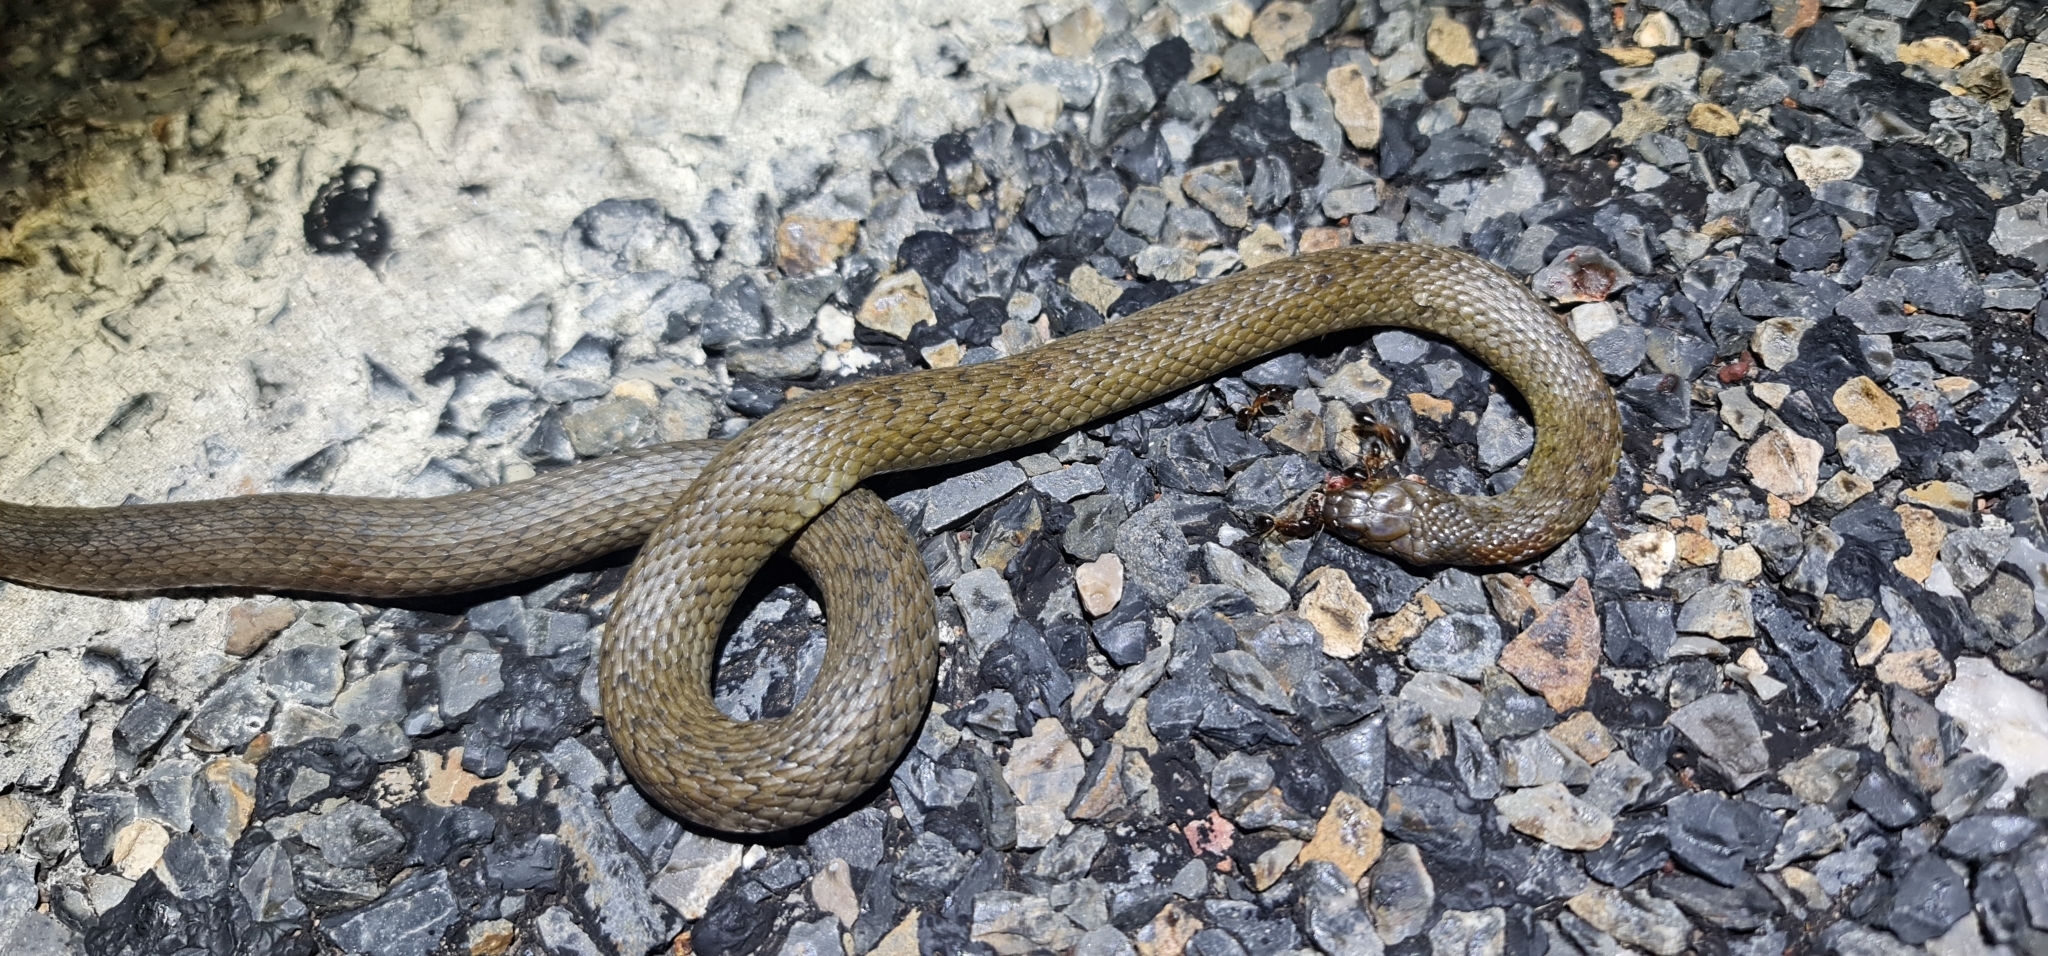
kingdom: Animalia
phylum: Chordata
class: Squamata
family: Colubridae
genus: Tropidonophis
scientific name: Tropidonophis mairii
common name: Common keelback
